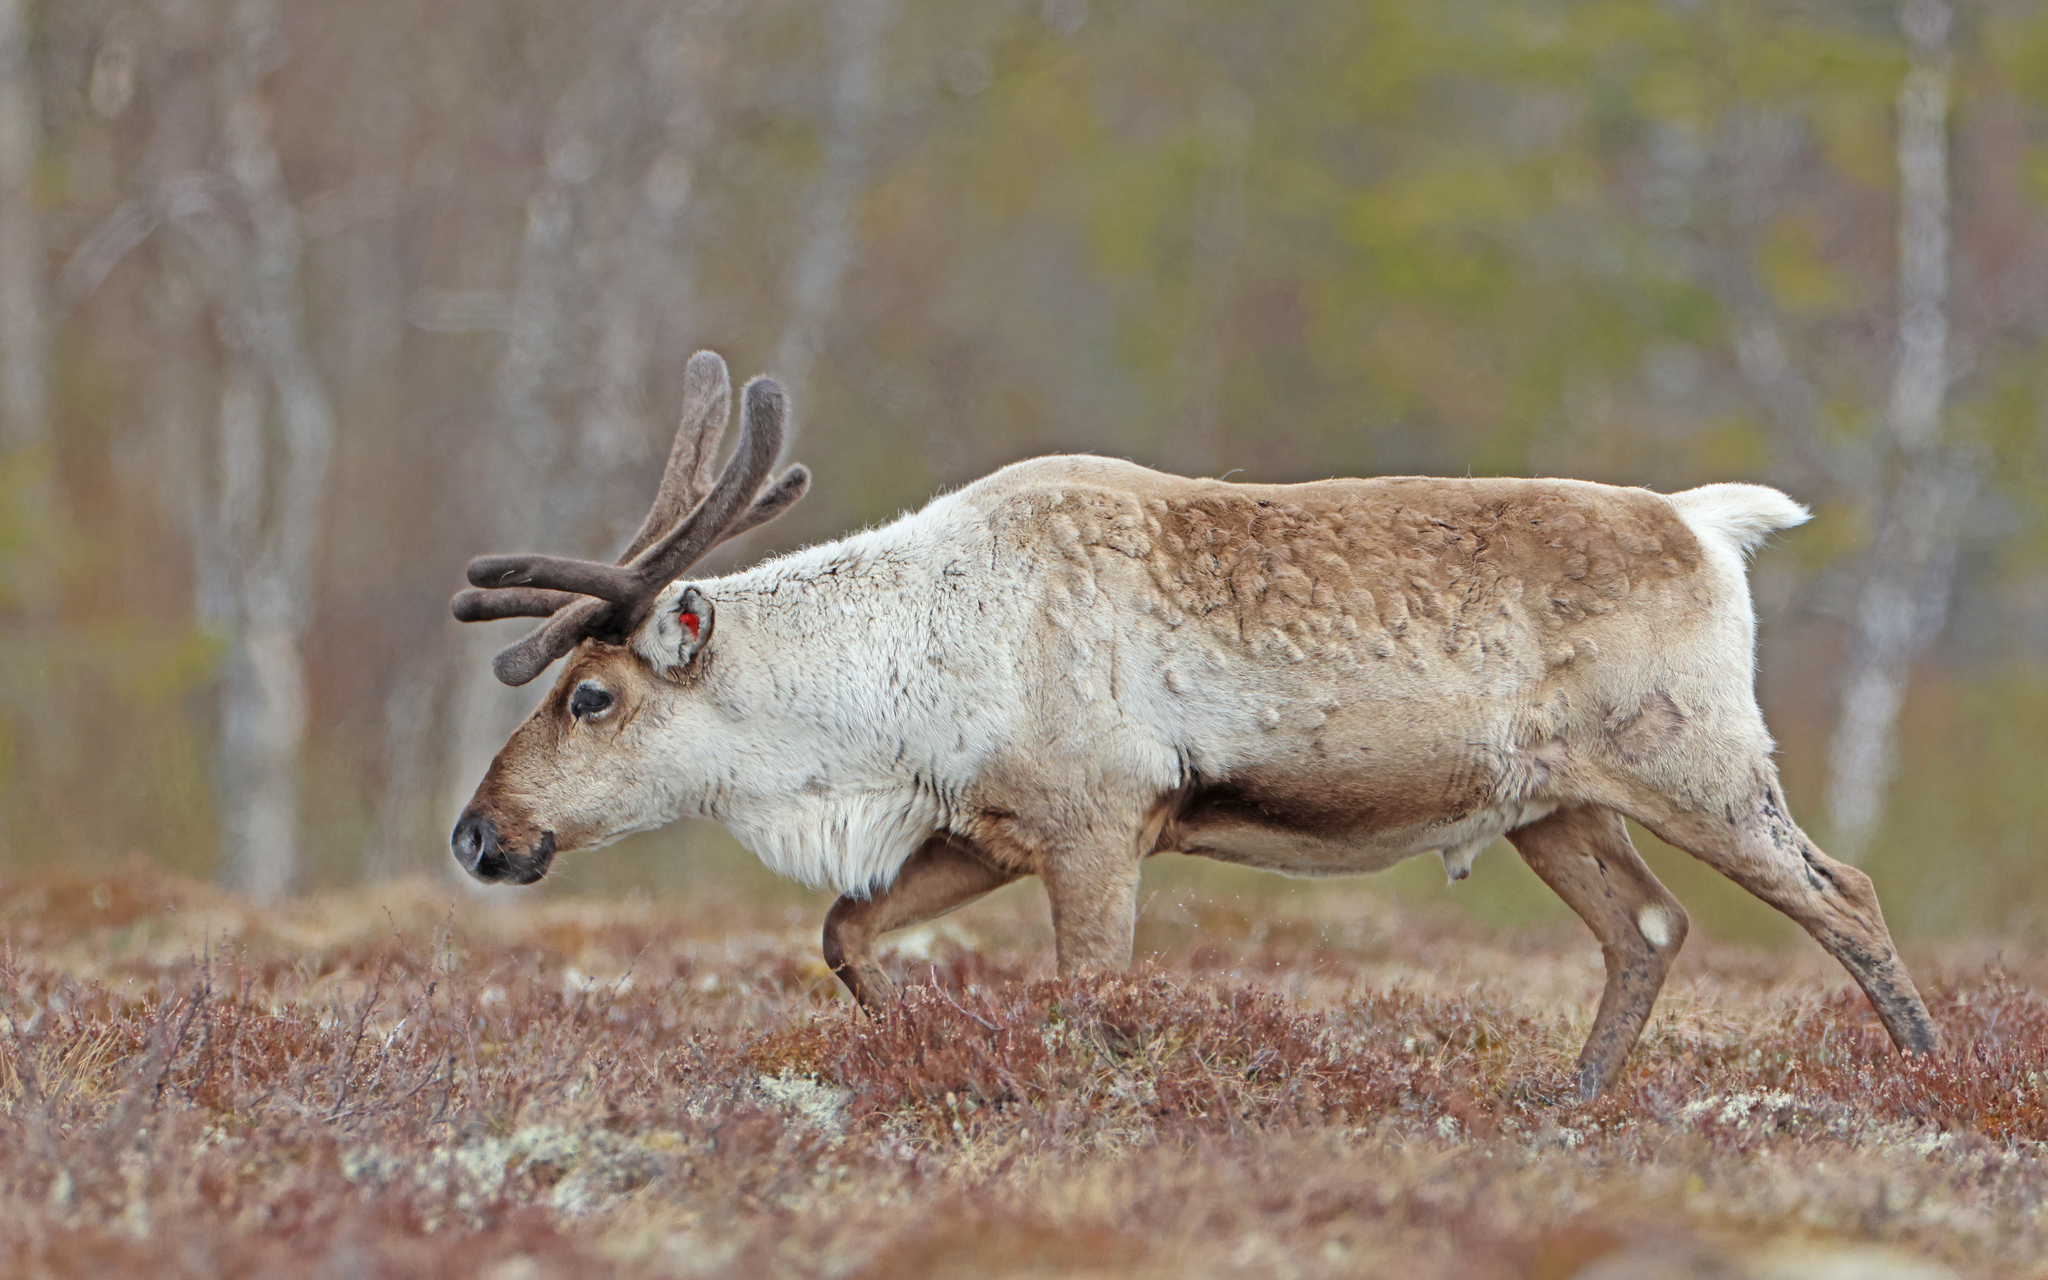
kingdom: Animalia
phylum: Chordata
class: Mammalia
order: Artiodactyla
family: Cervidae
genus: Rangifer
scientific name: Rangifer tarandus
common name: Reindeer
